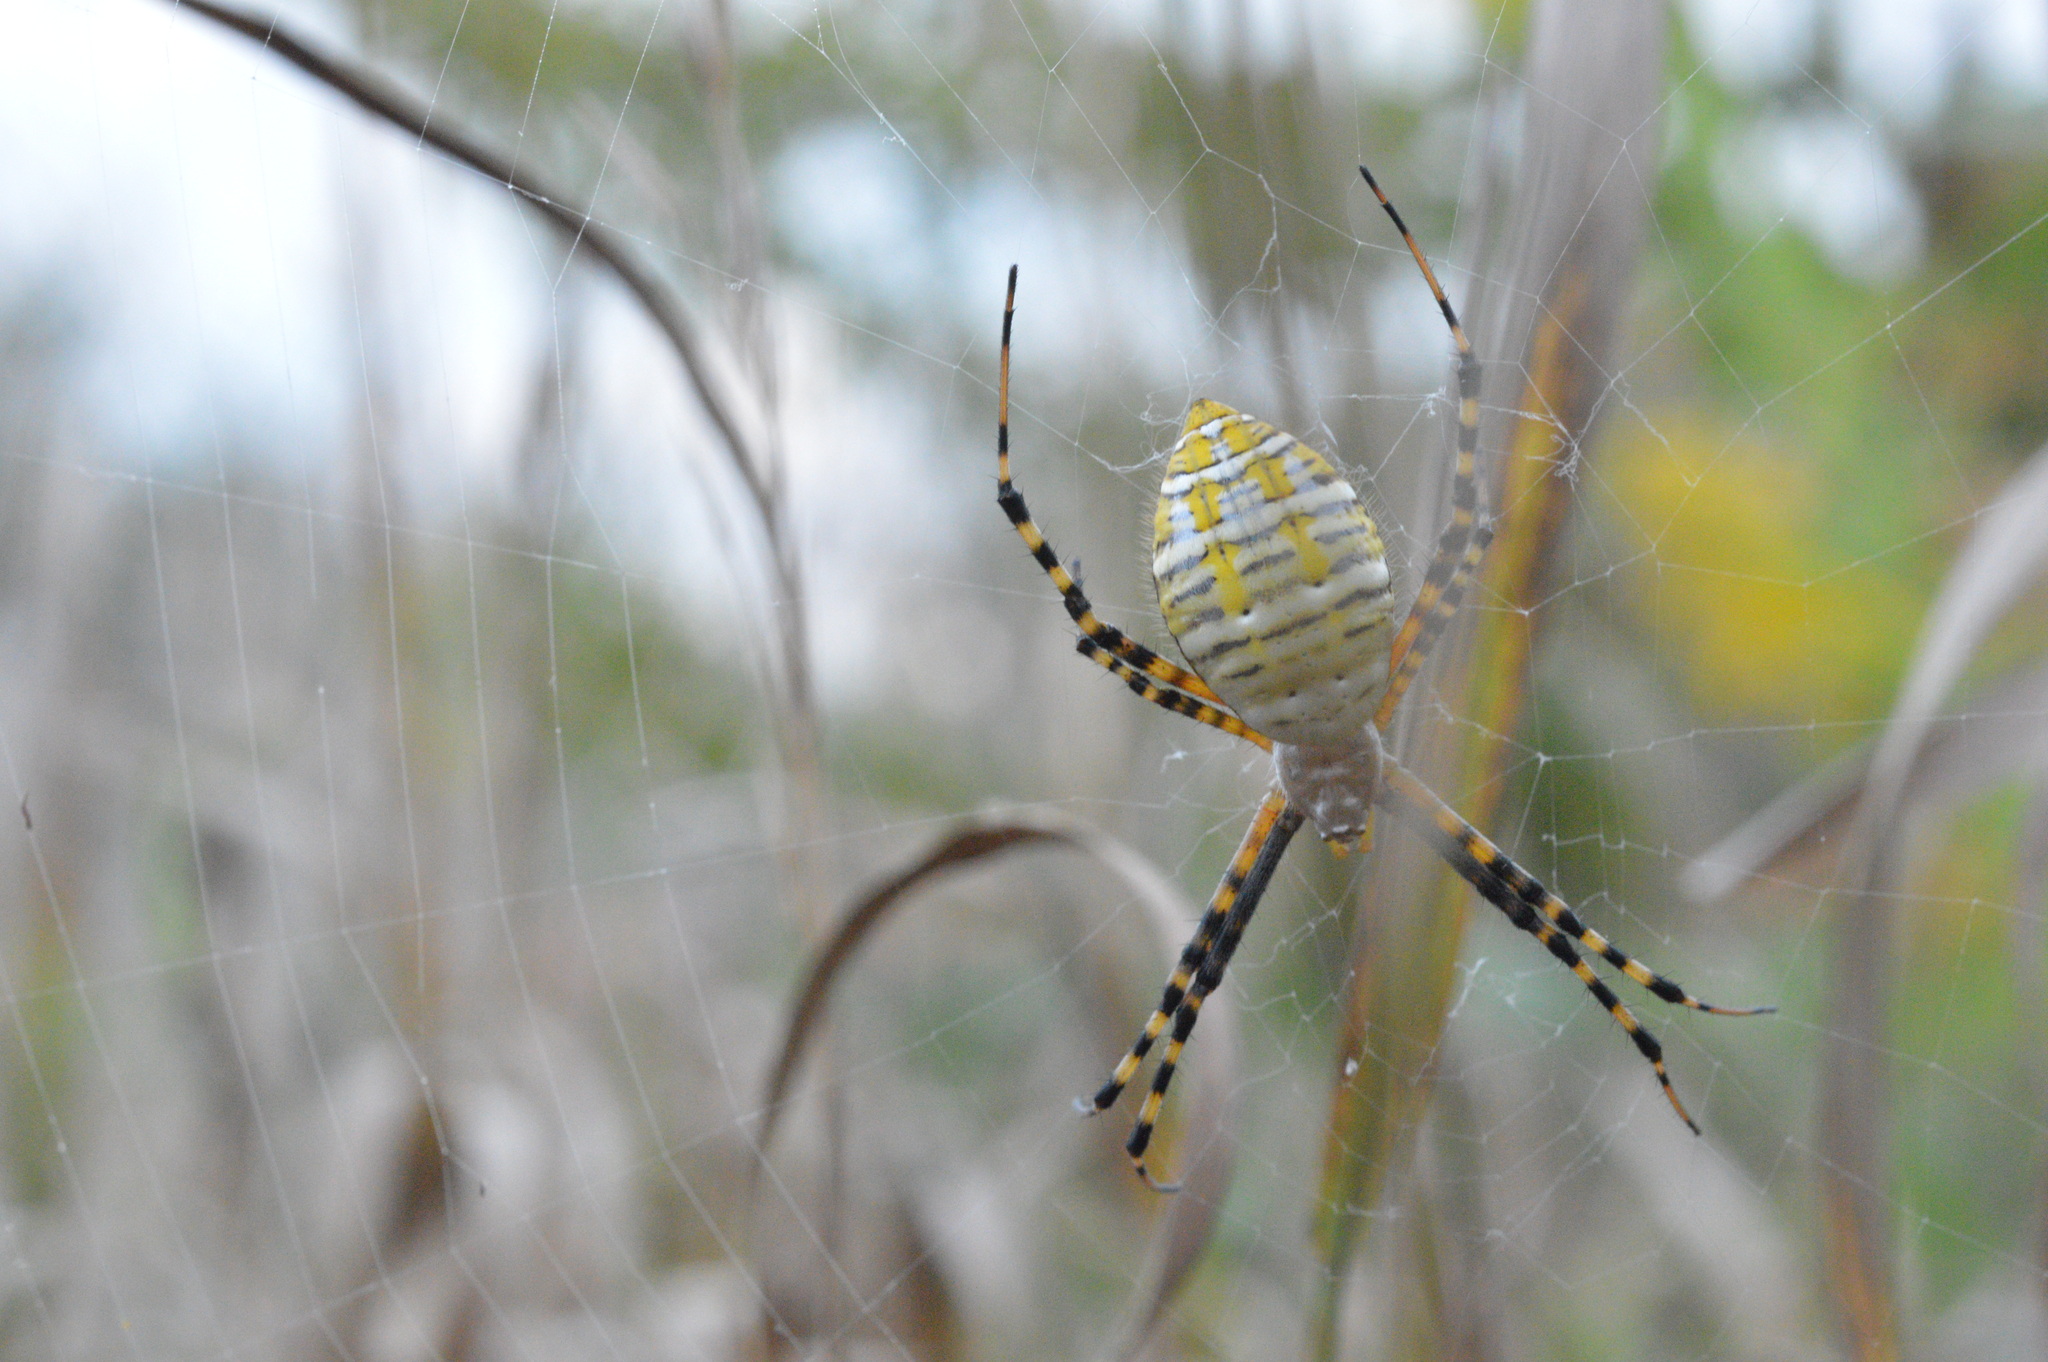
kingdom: Animalia
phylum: Arthropoda
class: Arachnida
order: Araneae
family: Araneidae
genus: Argiope
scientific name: Argiope trifasciata
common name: Banded garden spider
